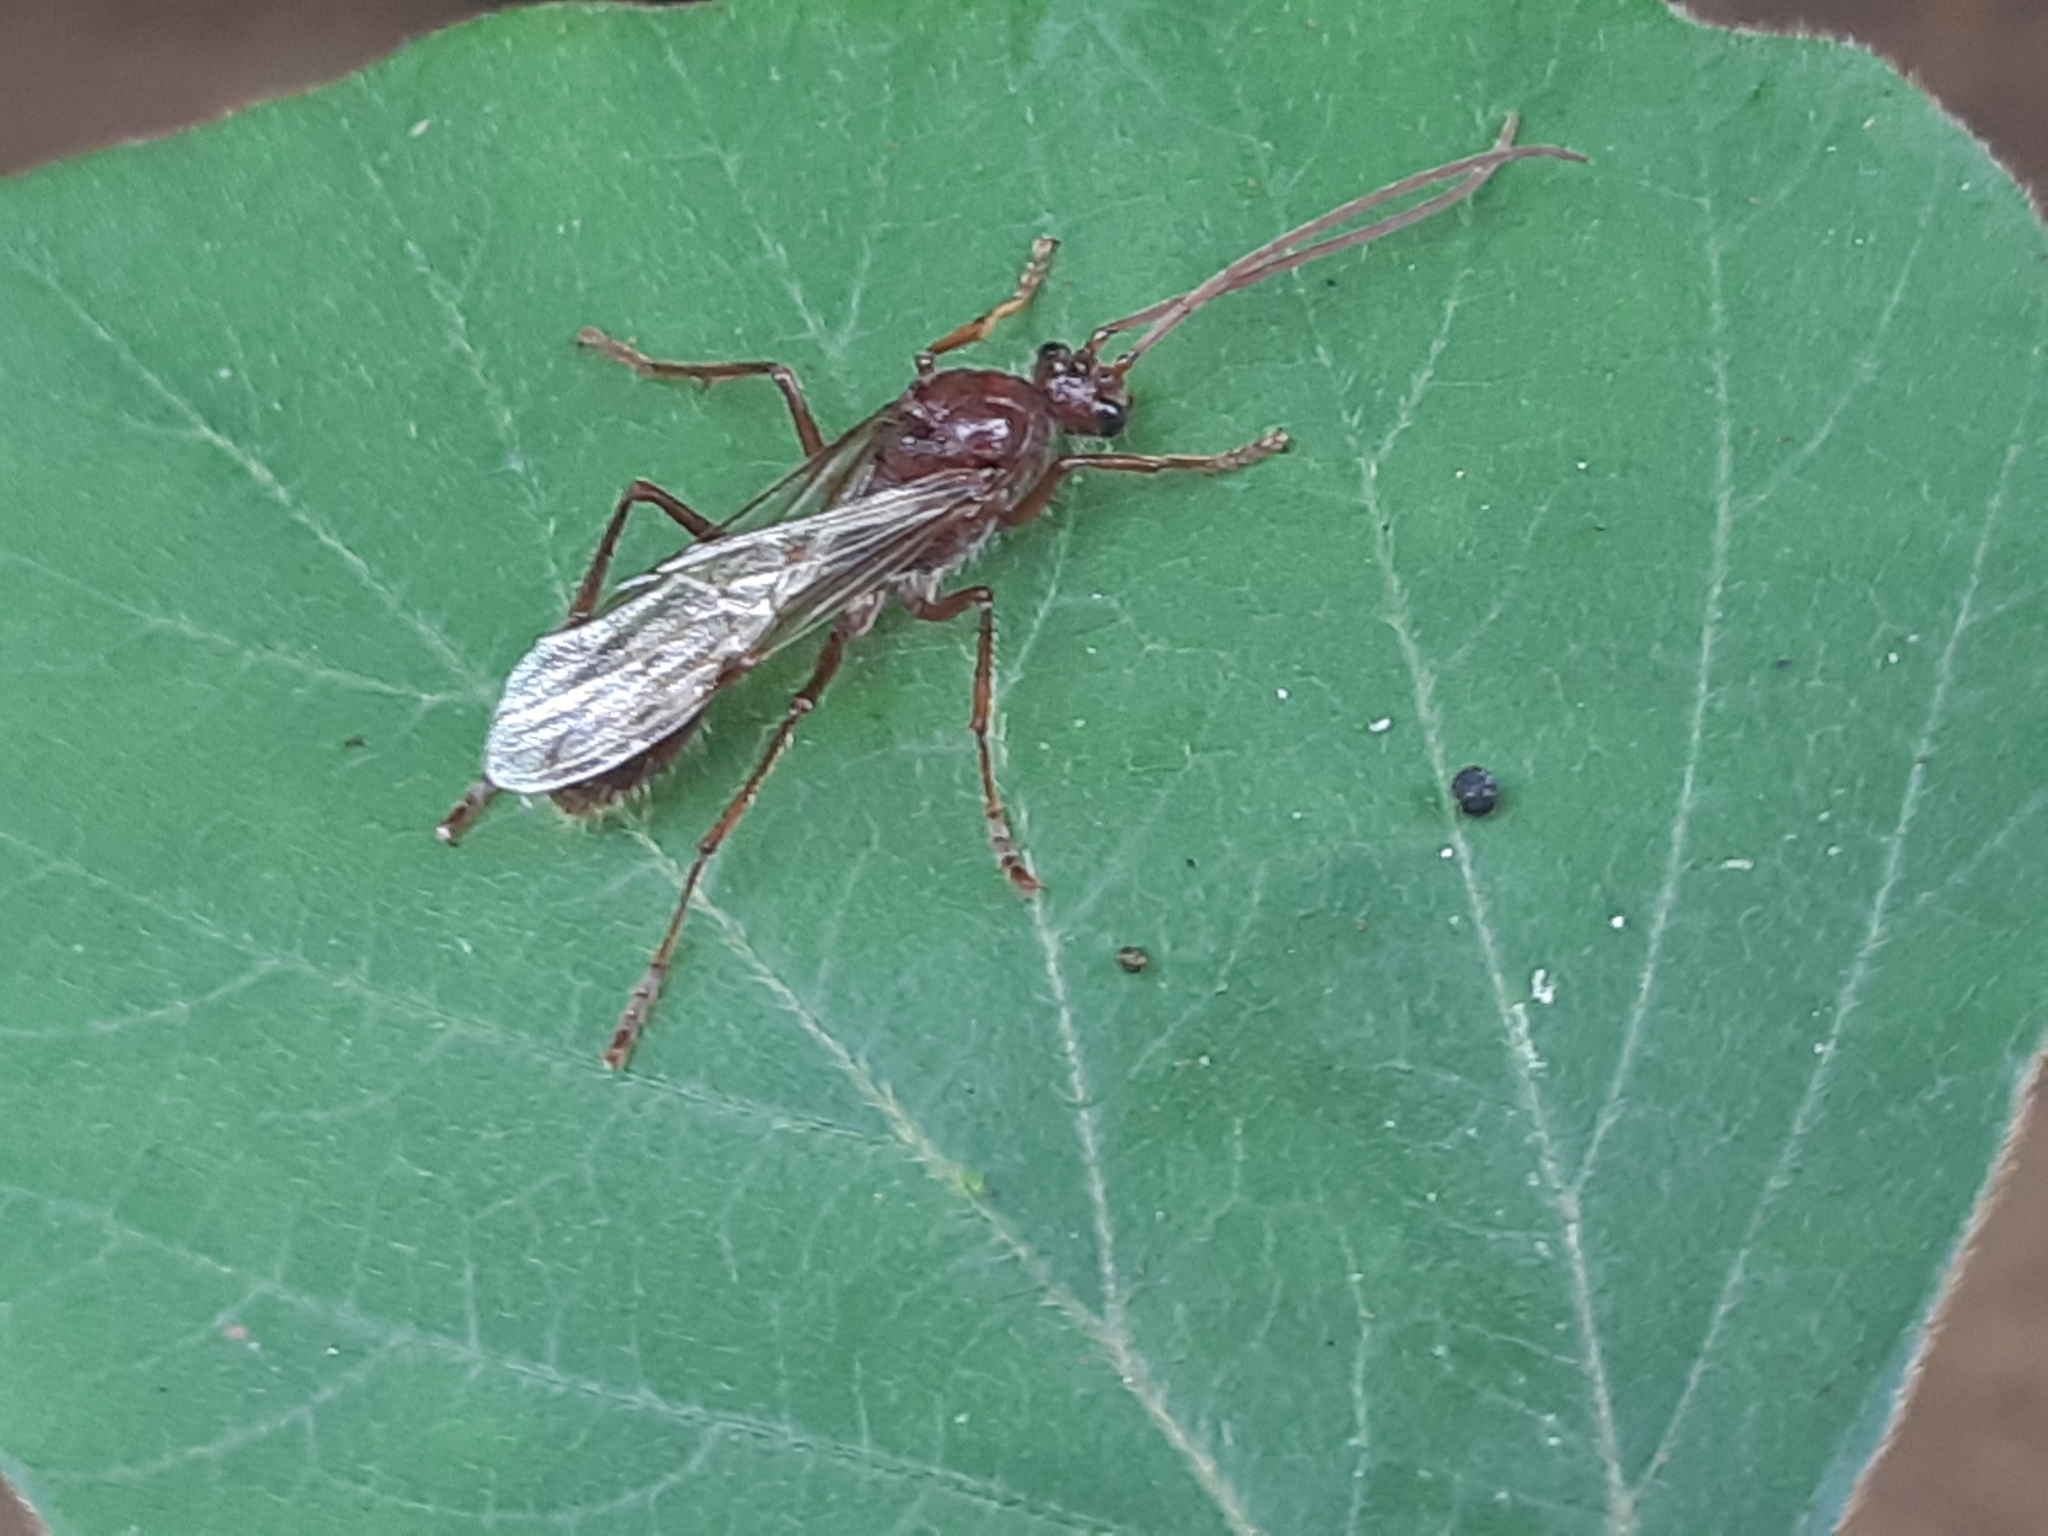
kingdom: Animalia
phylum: Arthropoda
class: Insecta
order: Hymenoptera
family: Formicidae
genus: Paraponera
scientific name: Paraponera clavata
